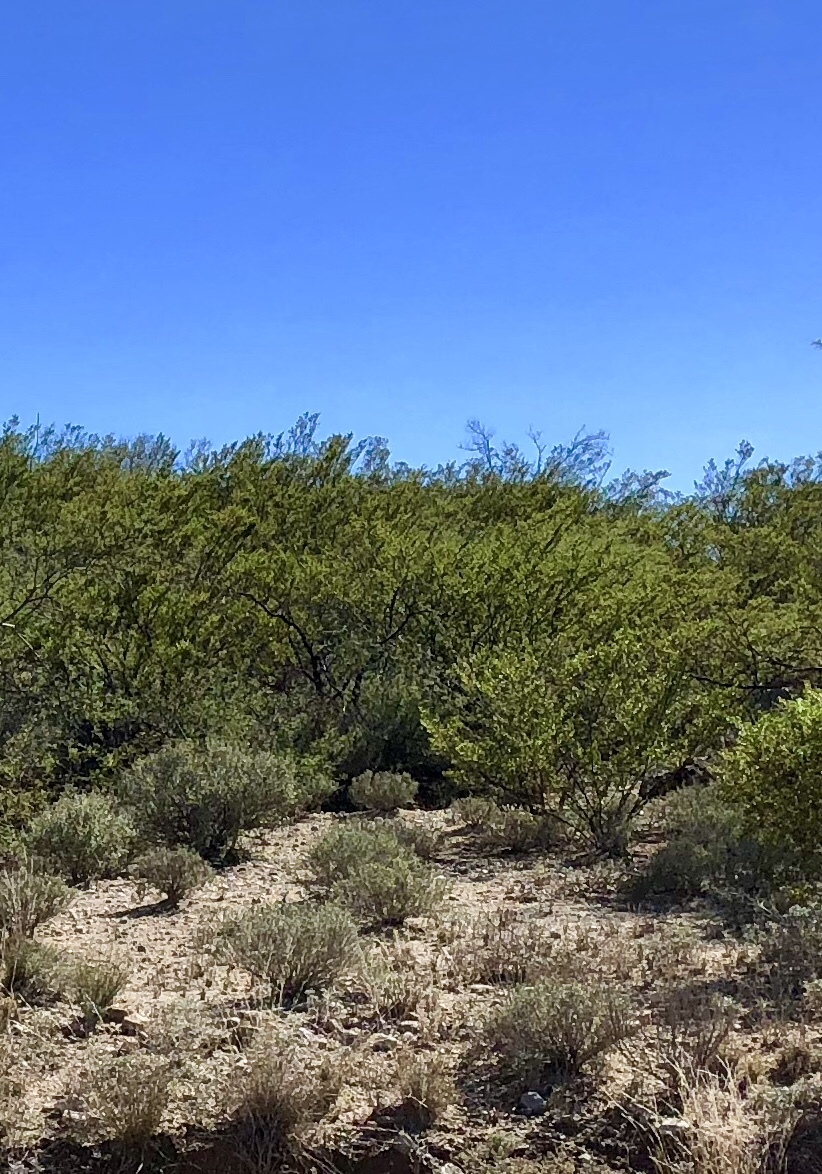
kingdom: Plantae
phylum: Tracheophyta
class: Magnoliopsida
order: Zygophyllales
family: Zygophyllaceae
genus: Larrea
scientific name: Larrea tridentata
